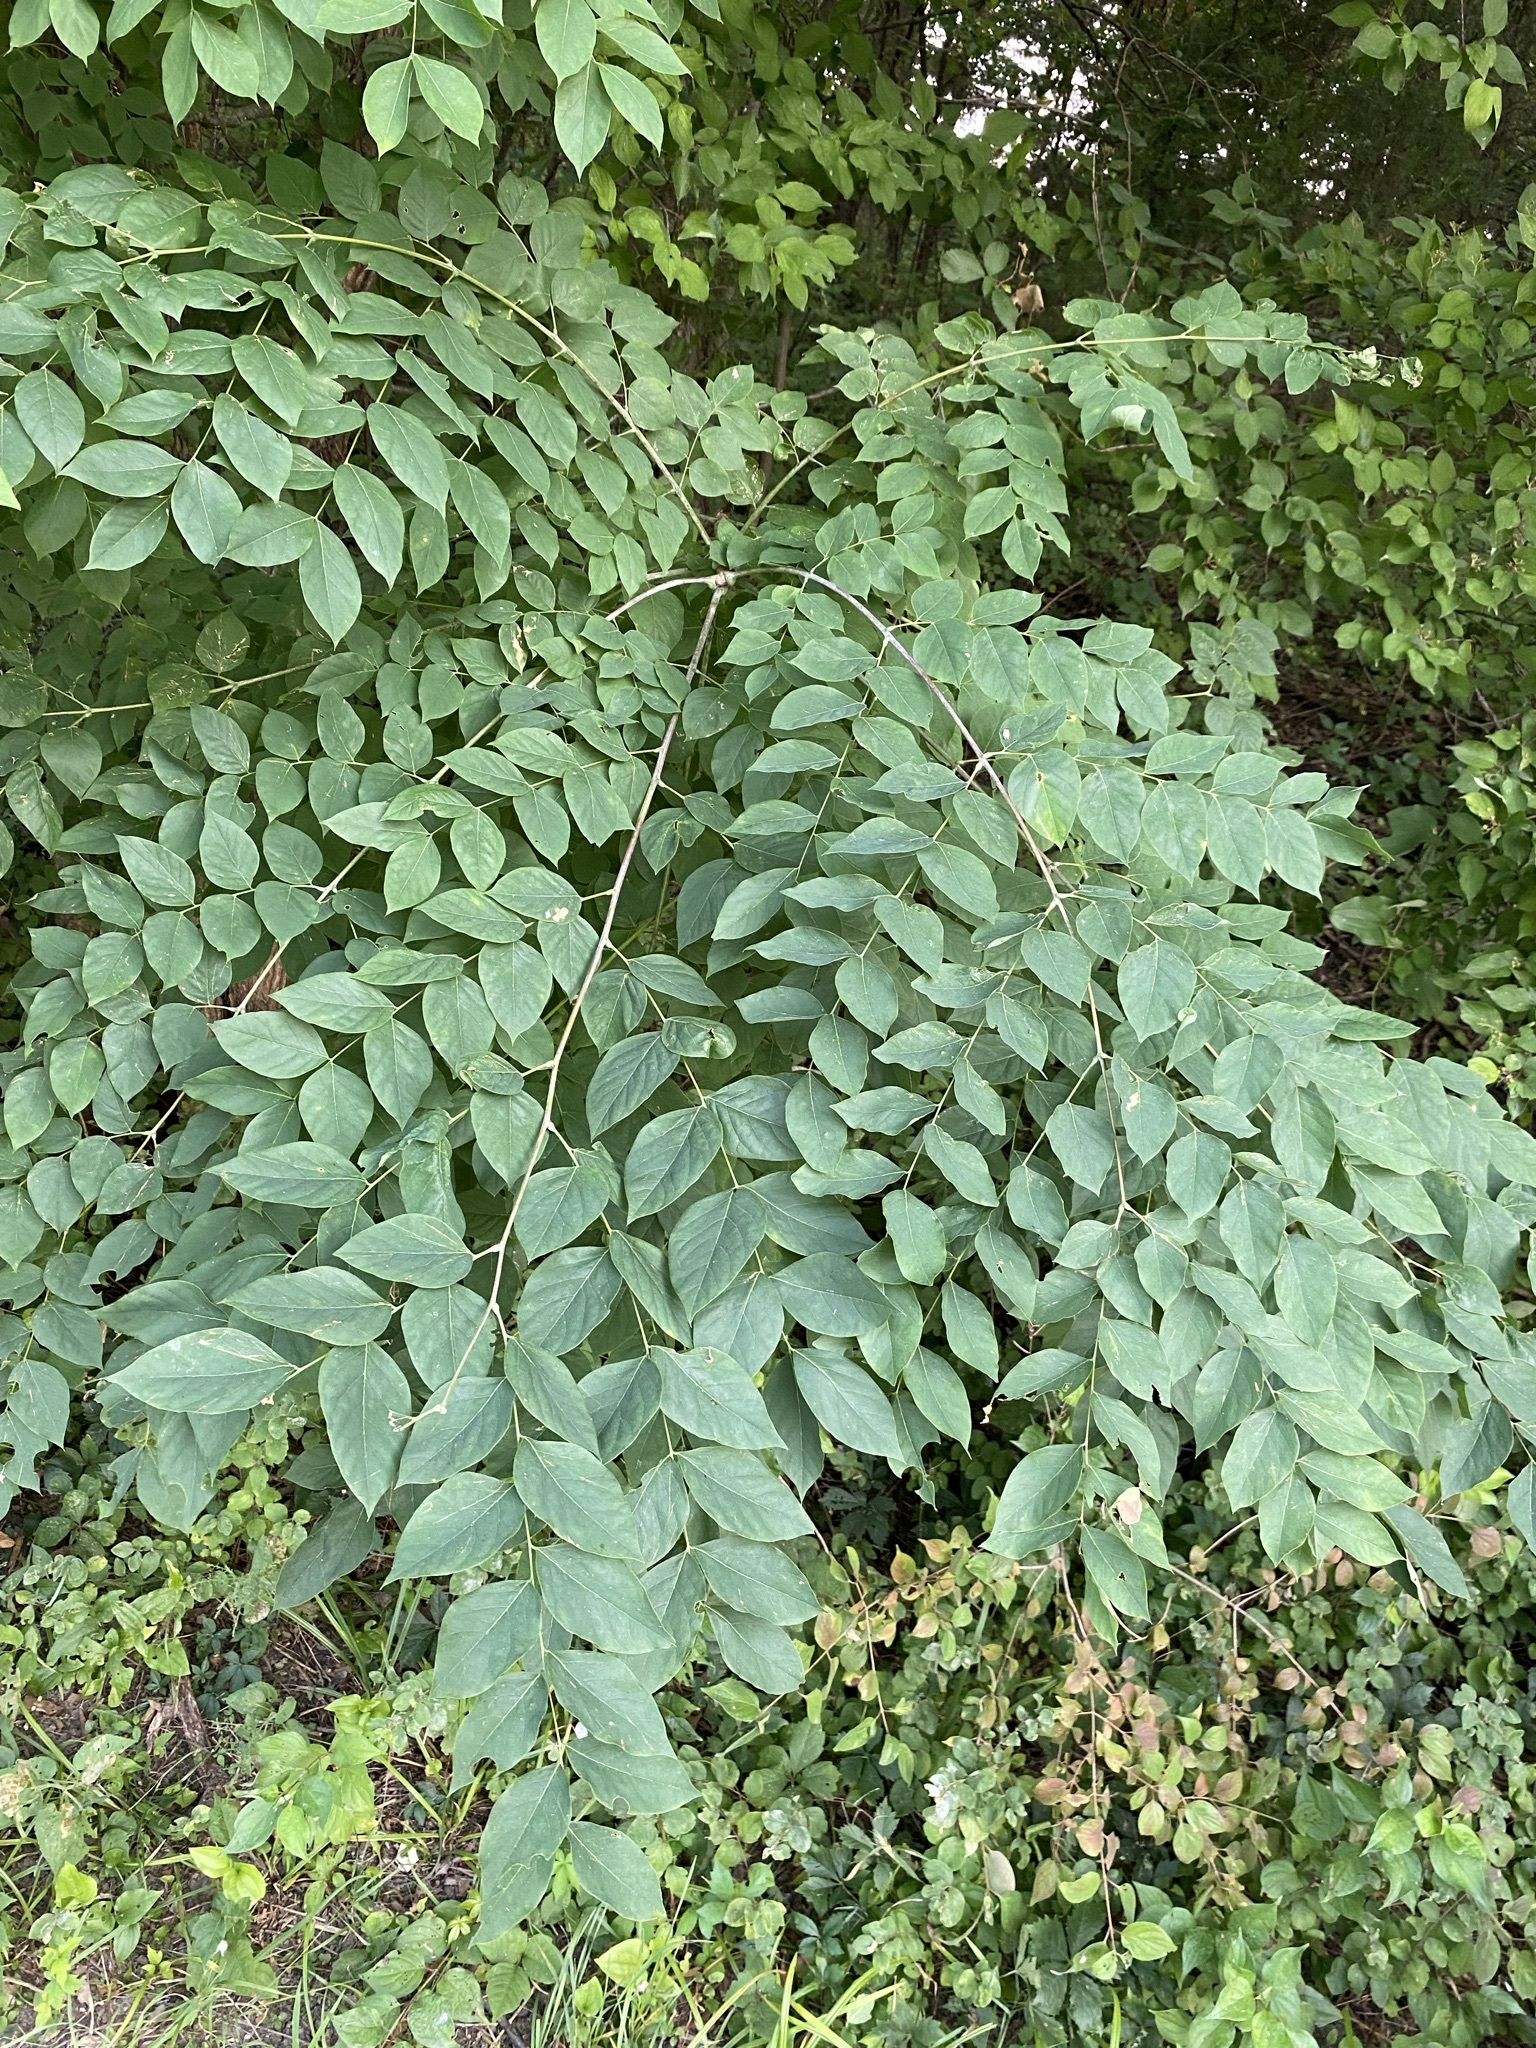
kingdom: Plantae
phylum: Tracheophyta
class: Magnoliopsida
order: Fabales
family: Fabaceae
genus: Gymnocladus
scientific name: Gymnocladus dioicus
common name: Kentucky coffee-tree
